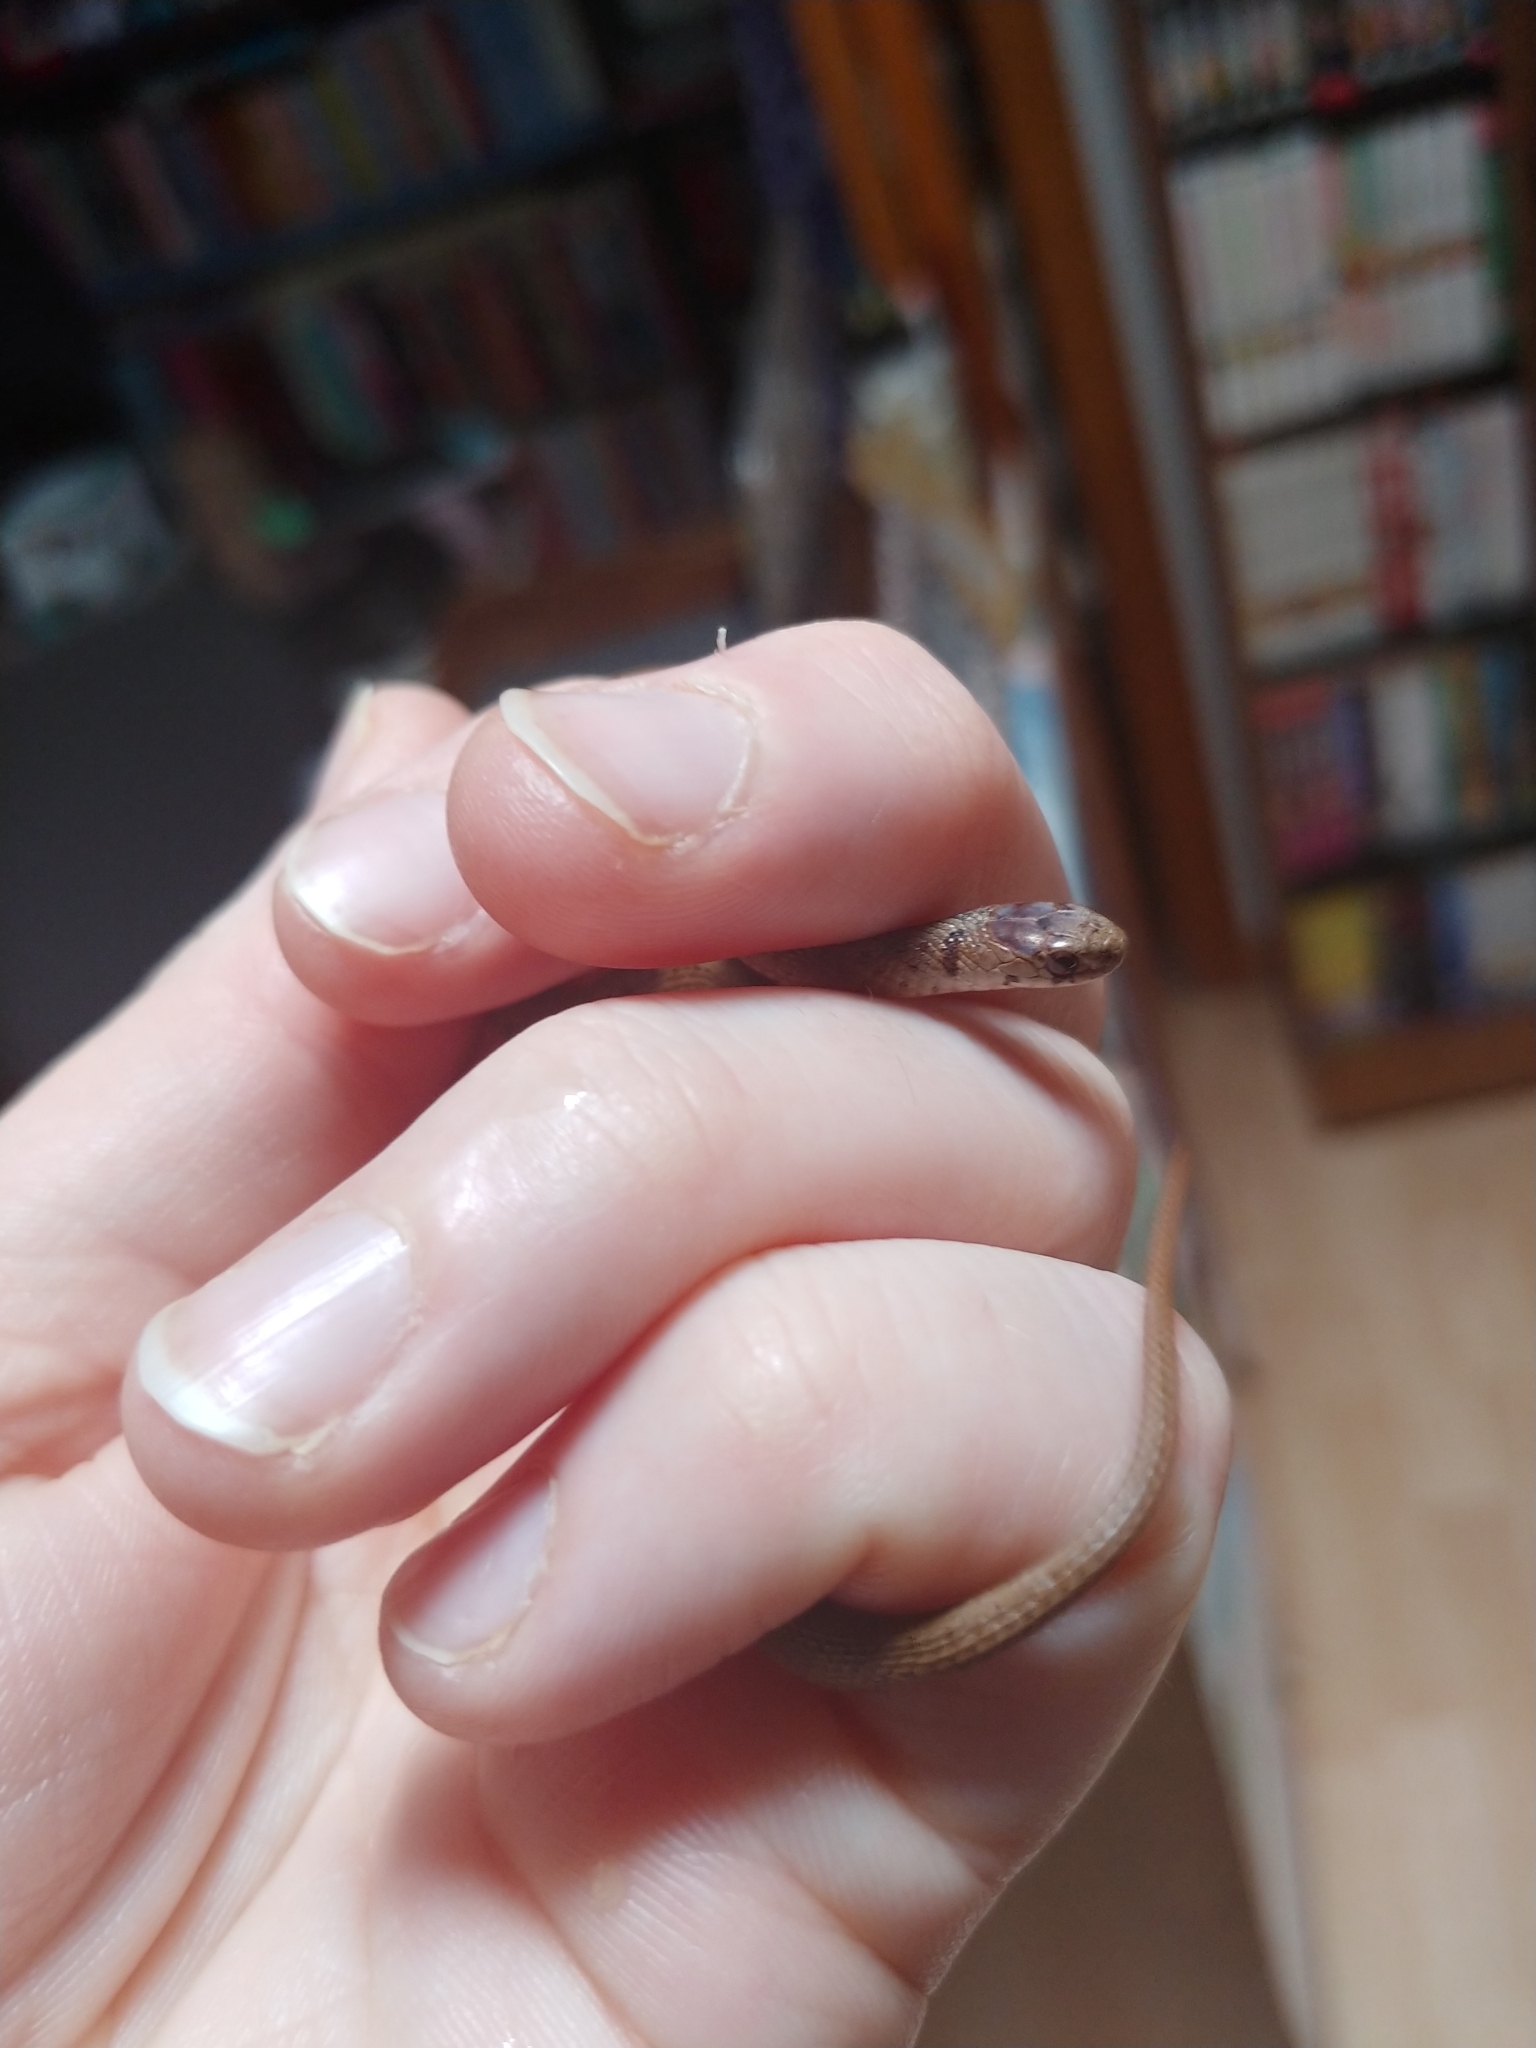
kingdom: Animalia
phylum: Chordata
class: Squamata
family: Colubridae
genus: Storeria
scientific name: Storeria dekayi
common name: (dekay’s) brown snake
